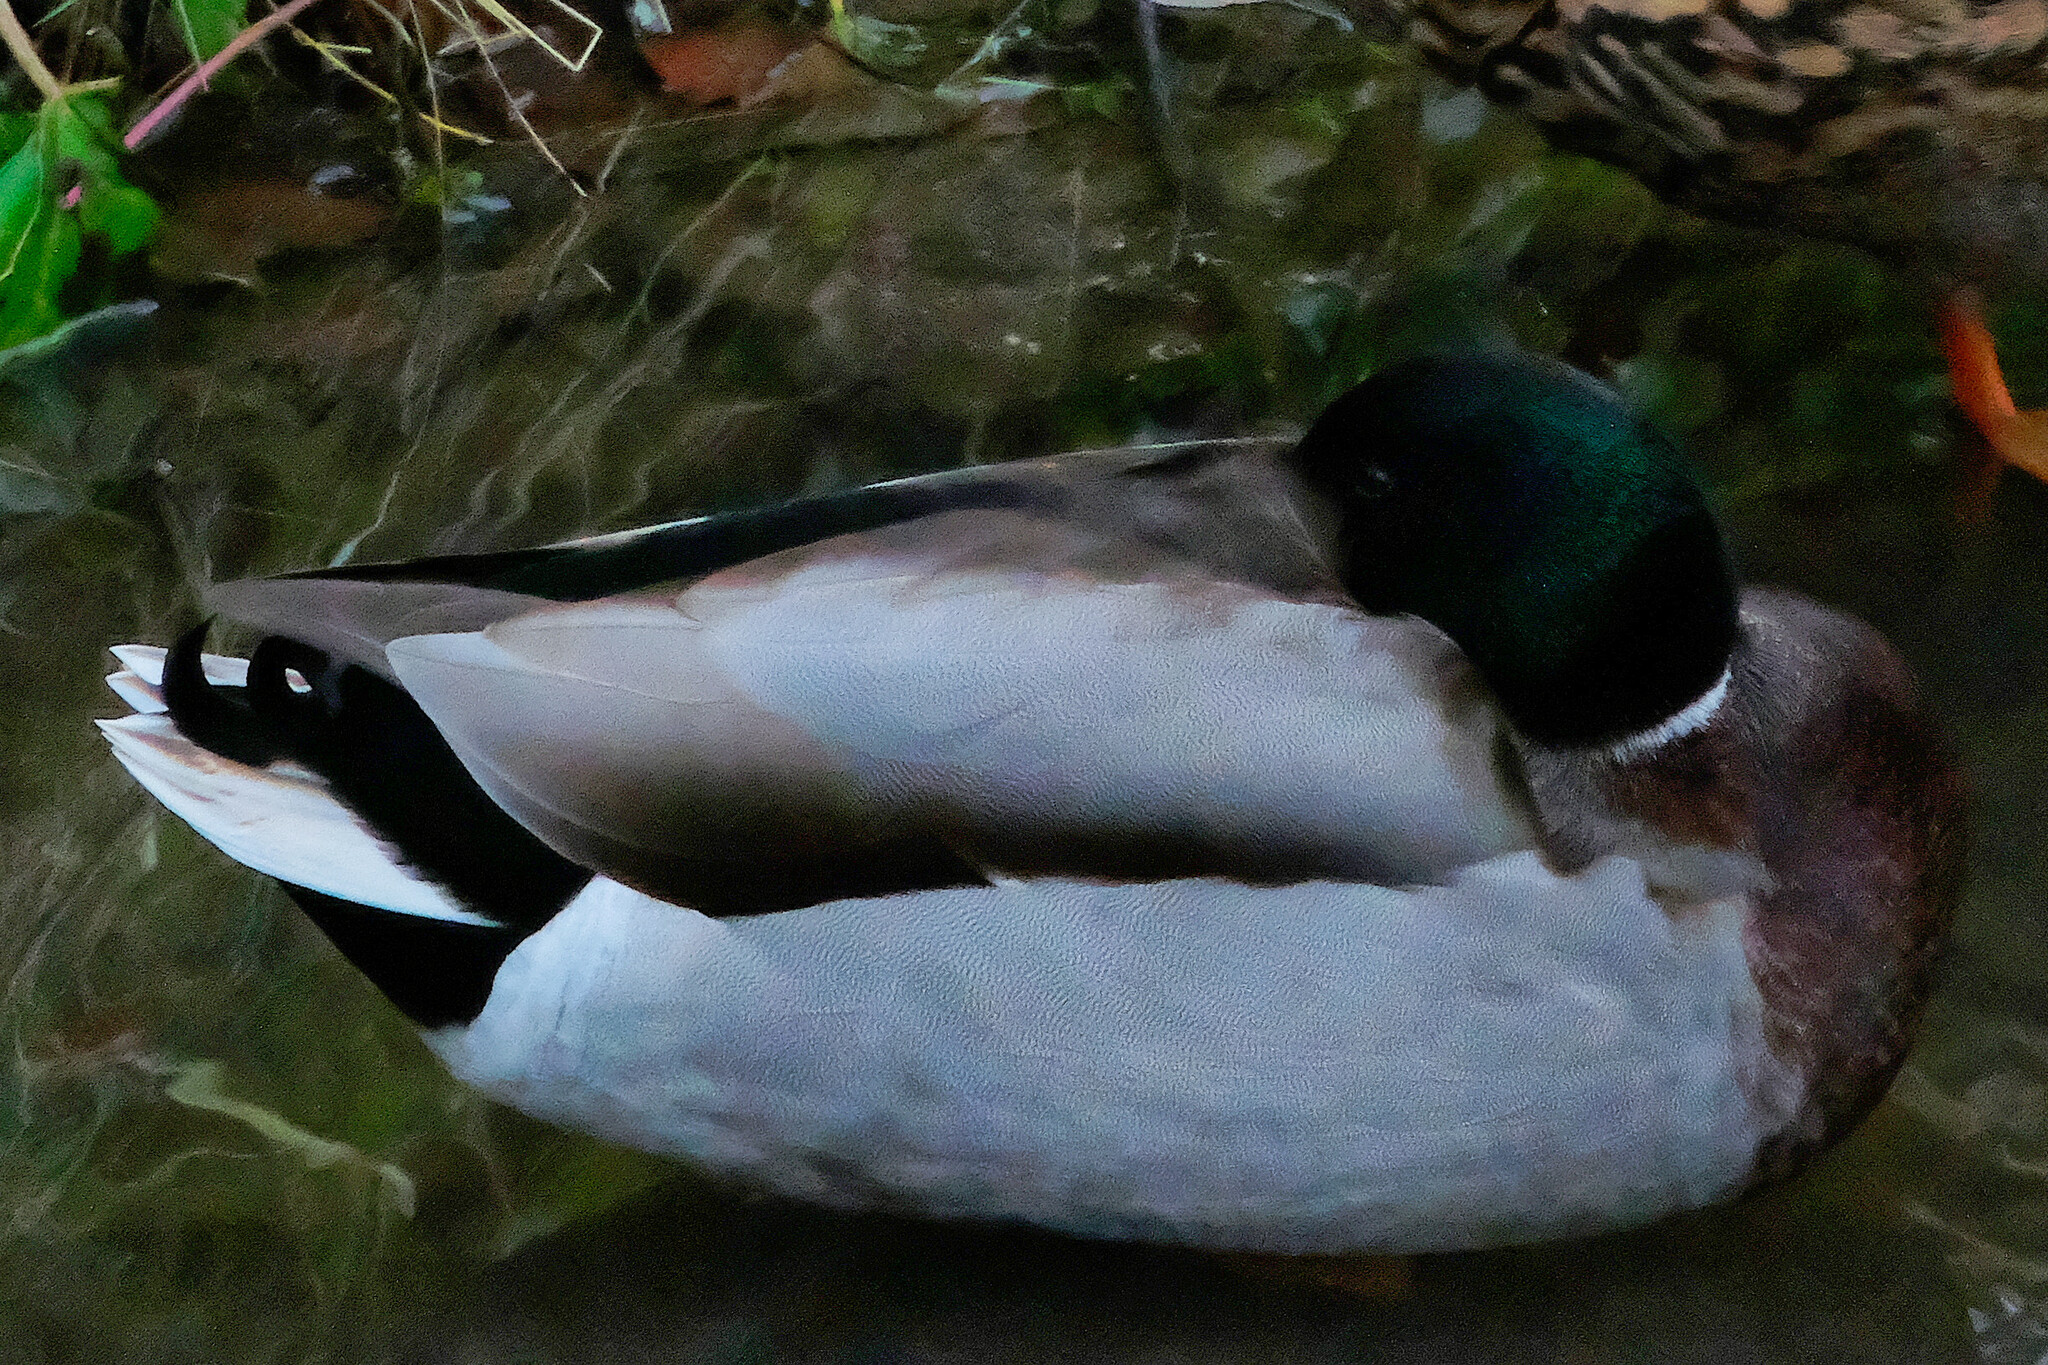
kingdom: Animalia
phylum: Chordata
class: Aves
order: Anseriformes
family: Anatidae
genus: Anas
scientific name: Anas platyrhynchos
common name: Mallard
